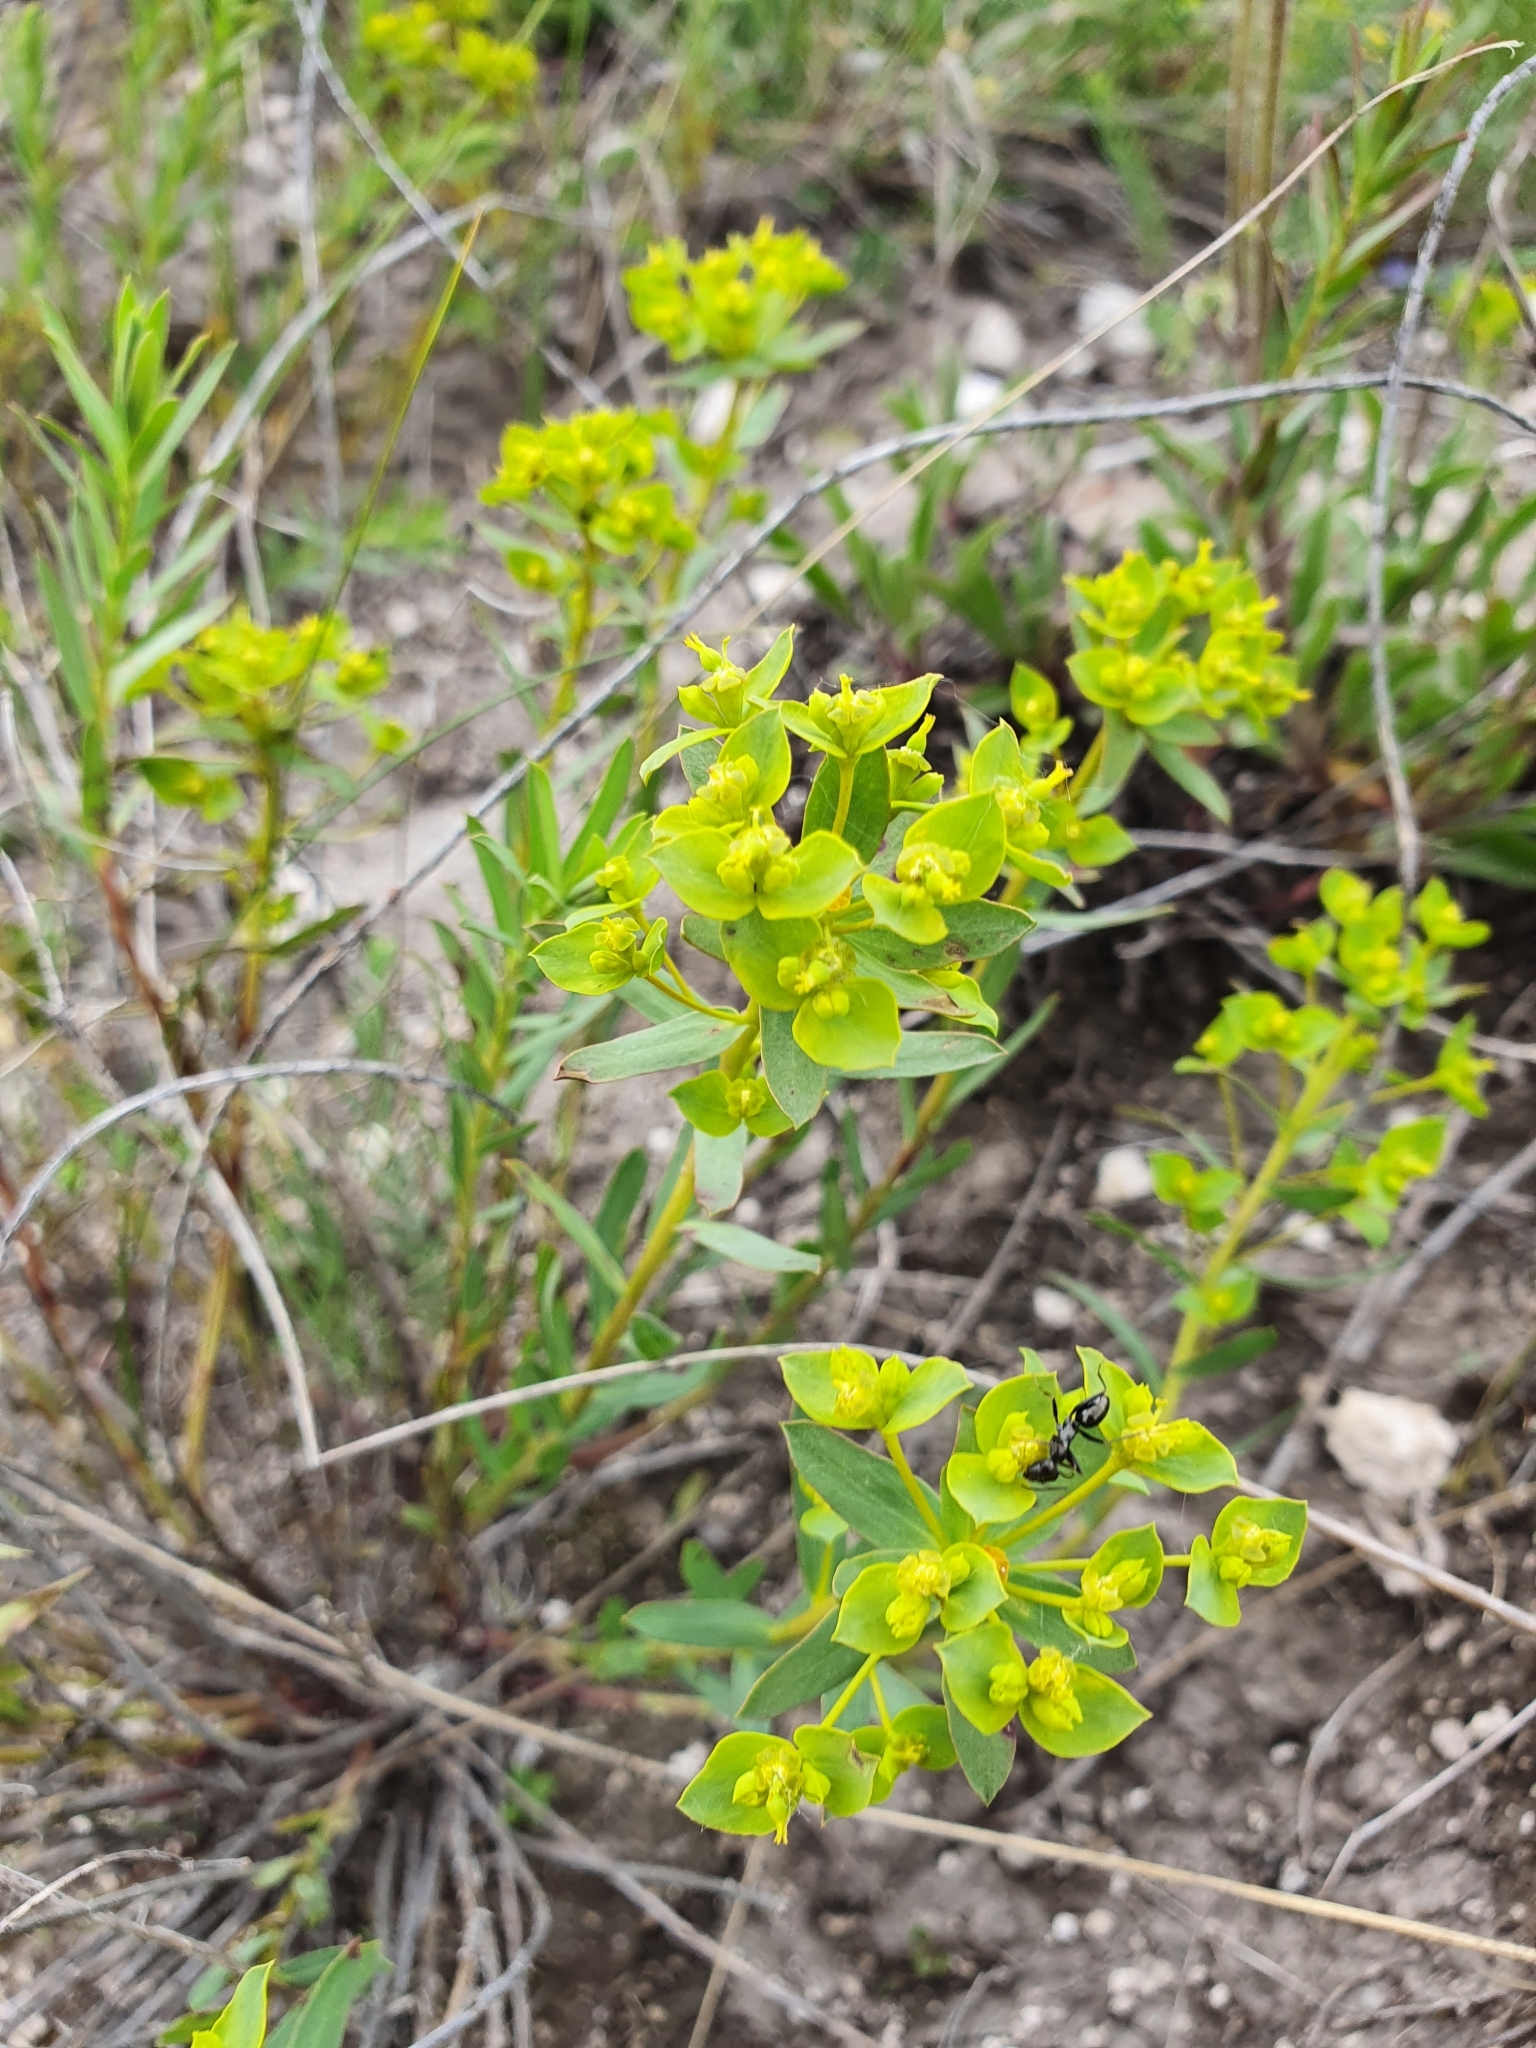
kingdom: Plantae
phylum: Tracheophyta
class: Magnoliopsida
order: Malpighiales
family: Euphorbiaceae
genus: Euphorbia
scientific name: Euphorbia seguieriana
